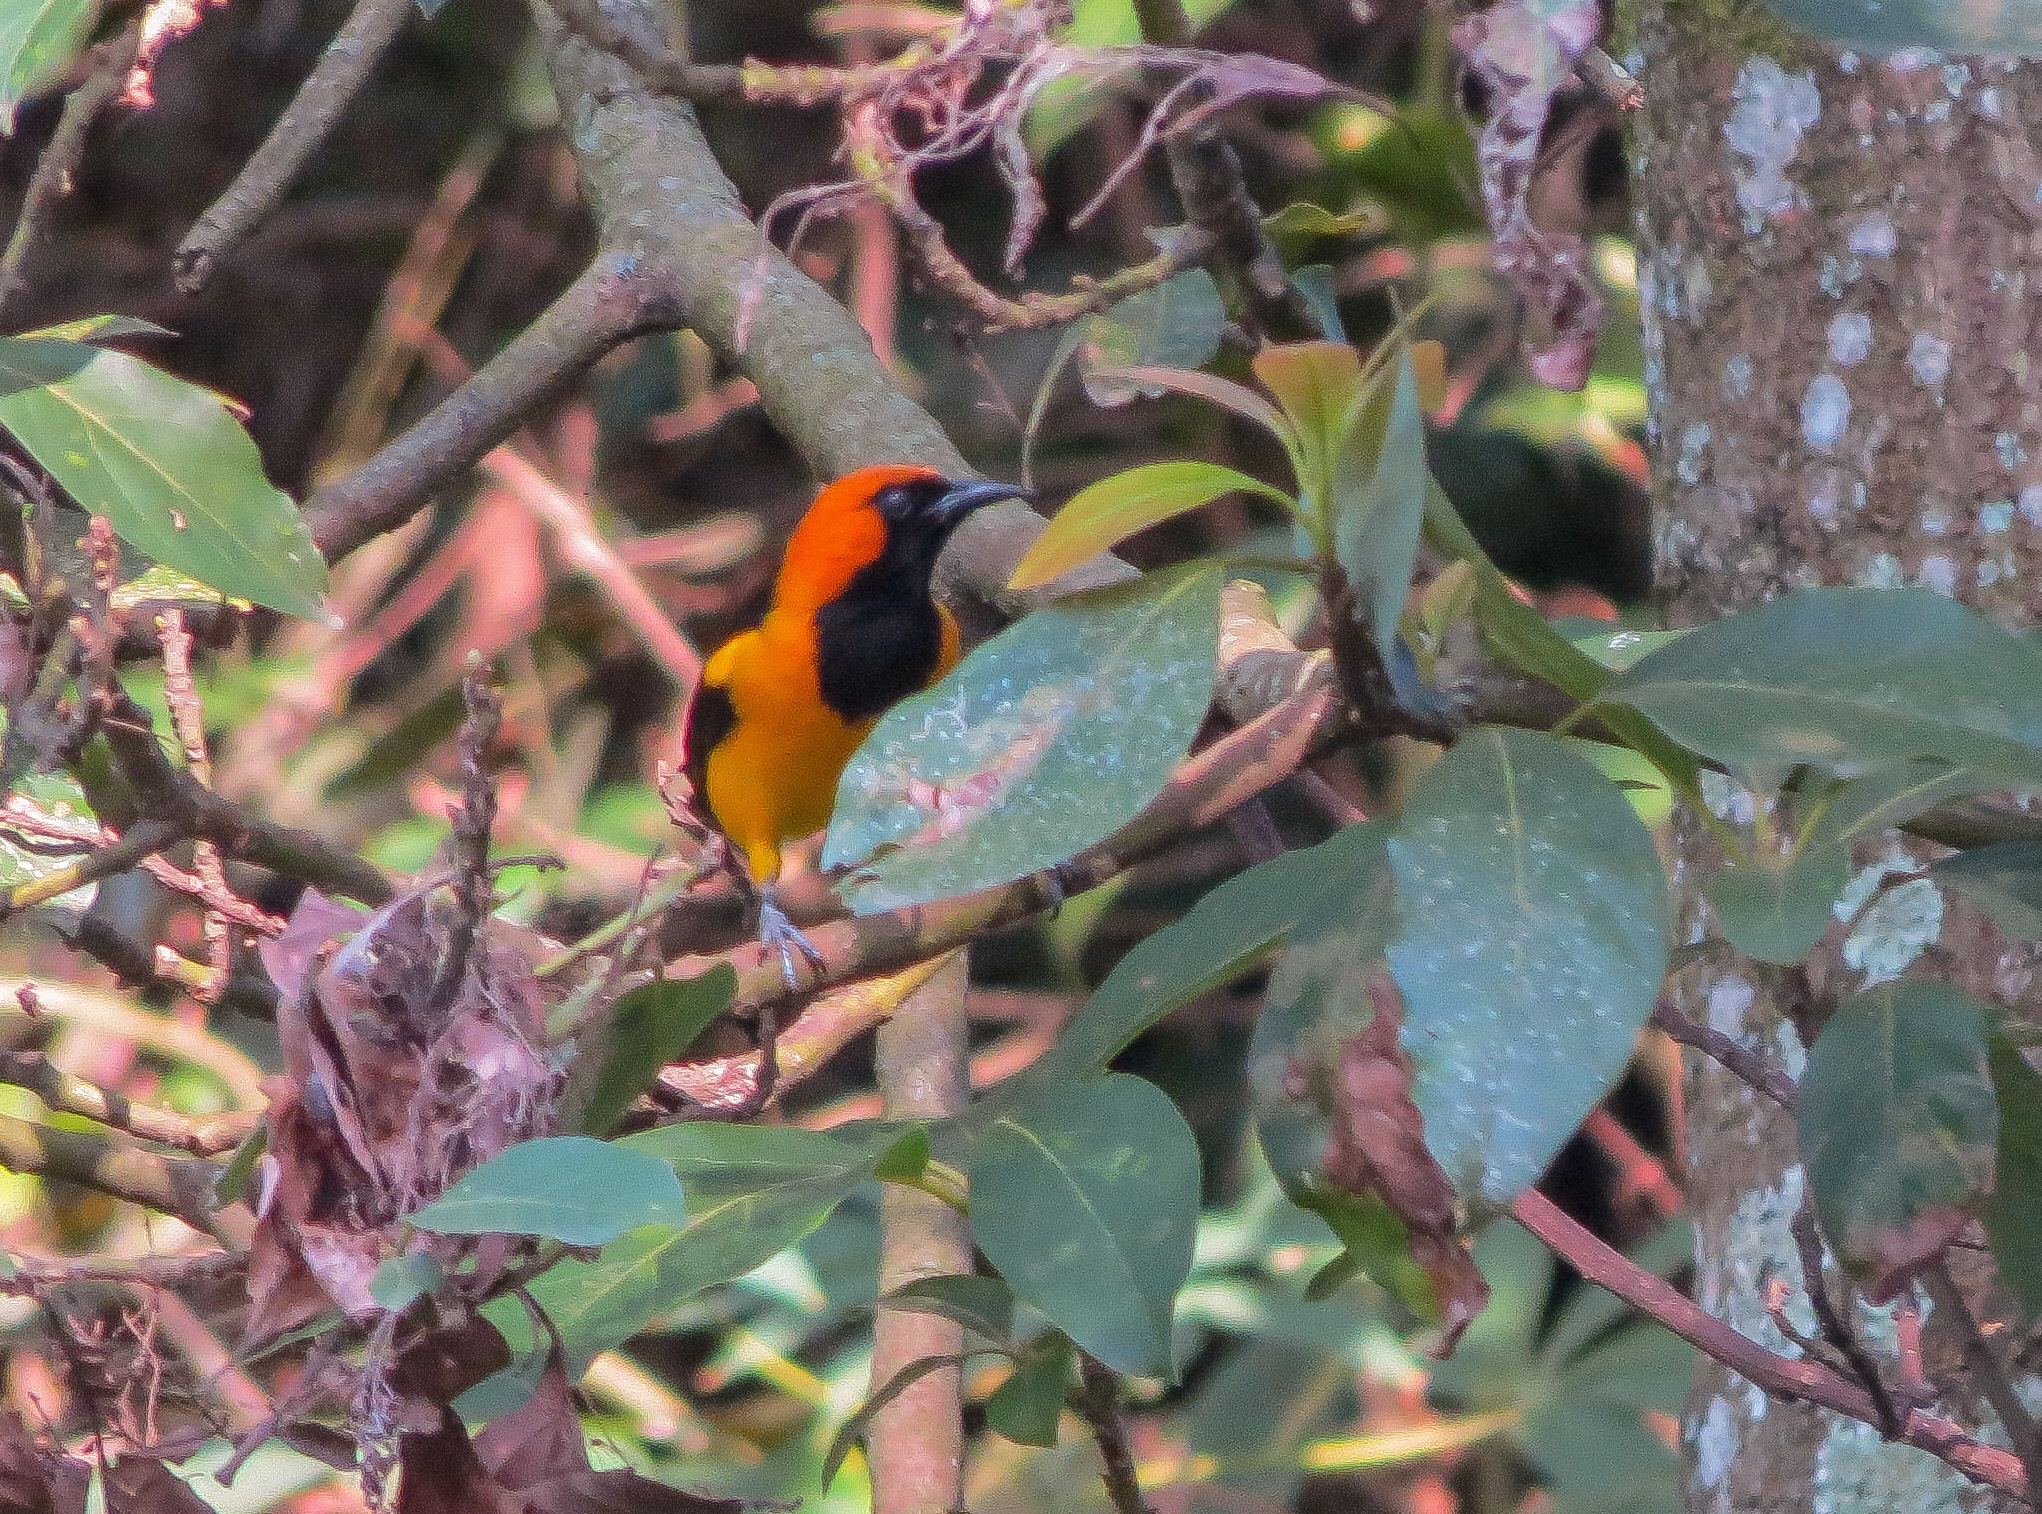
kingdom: Animalia
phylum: Chordata
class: Aves
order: Passeriformes
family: Icteridae
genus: Icterus
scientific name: Icterus auricapillus
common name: Orange-crowned oriole
